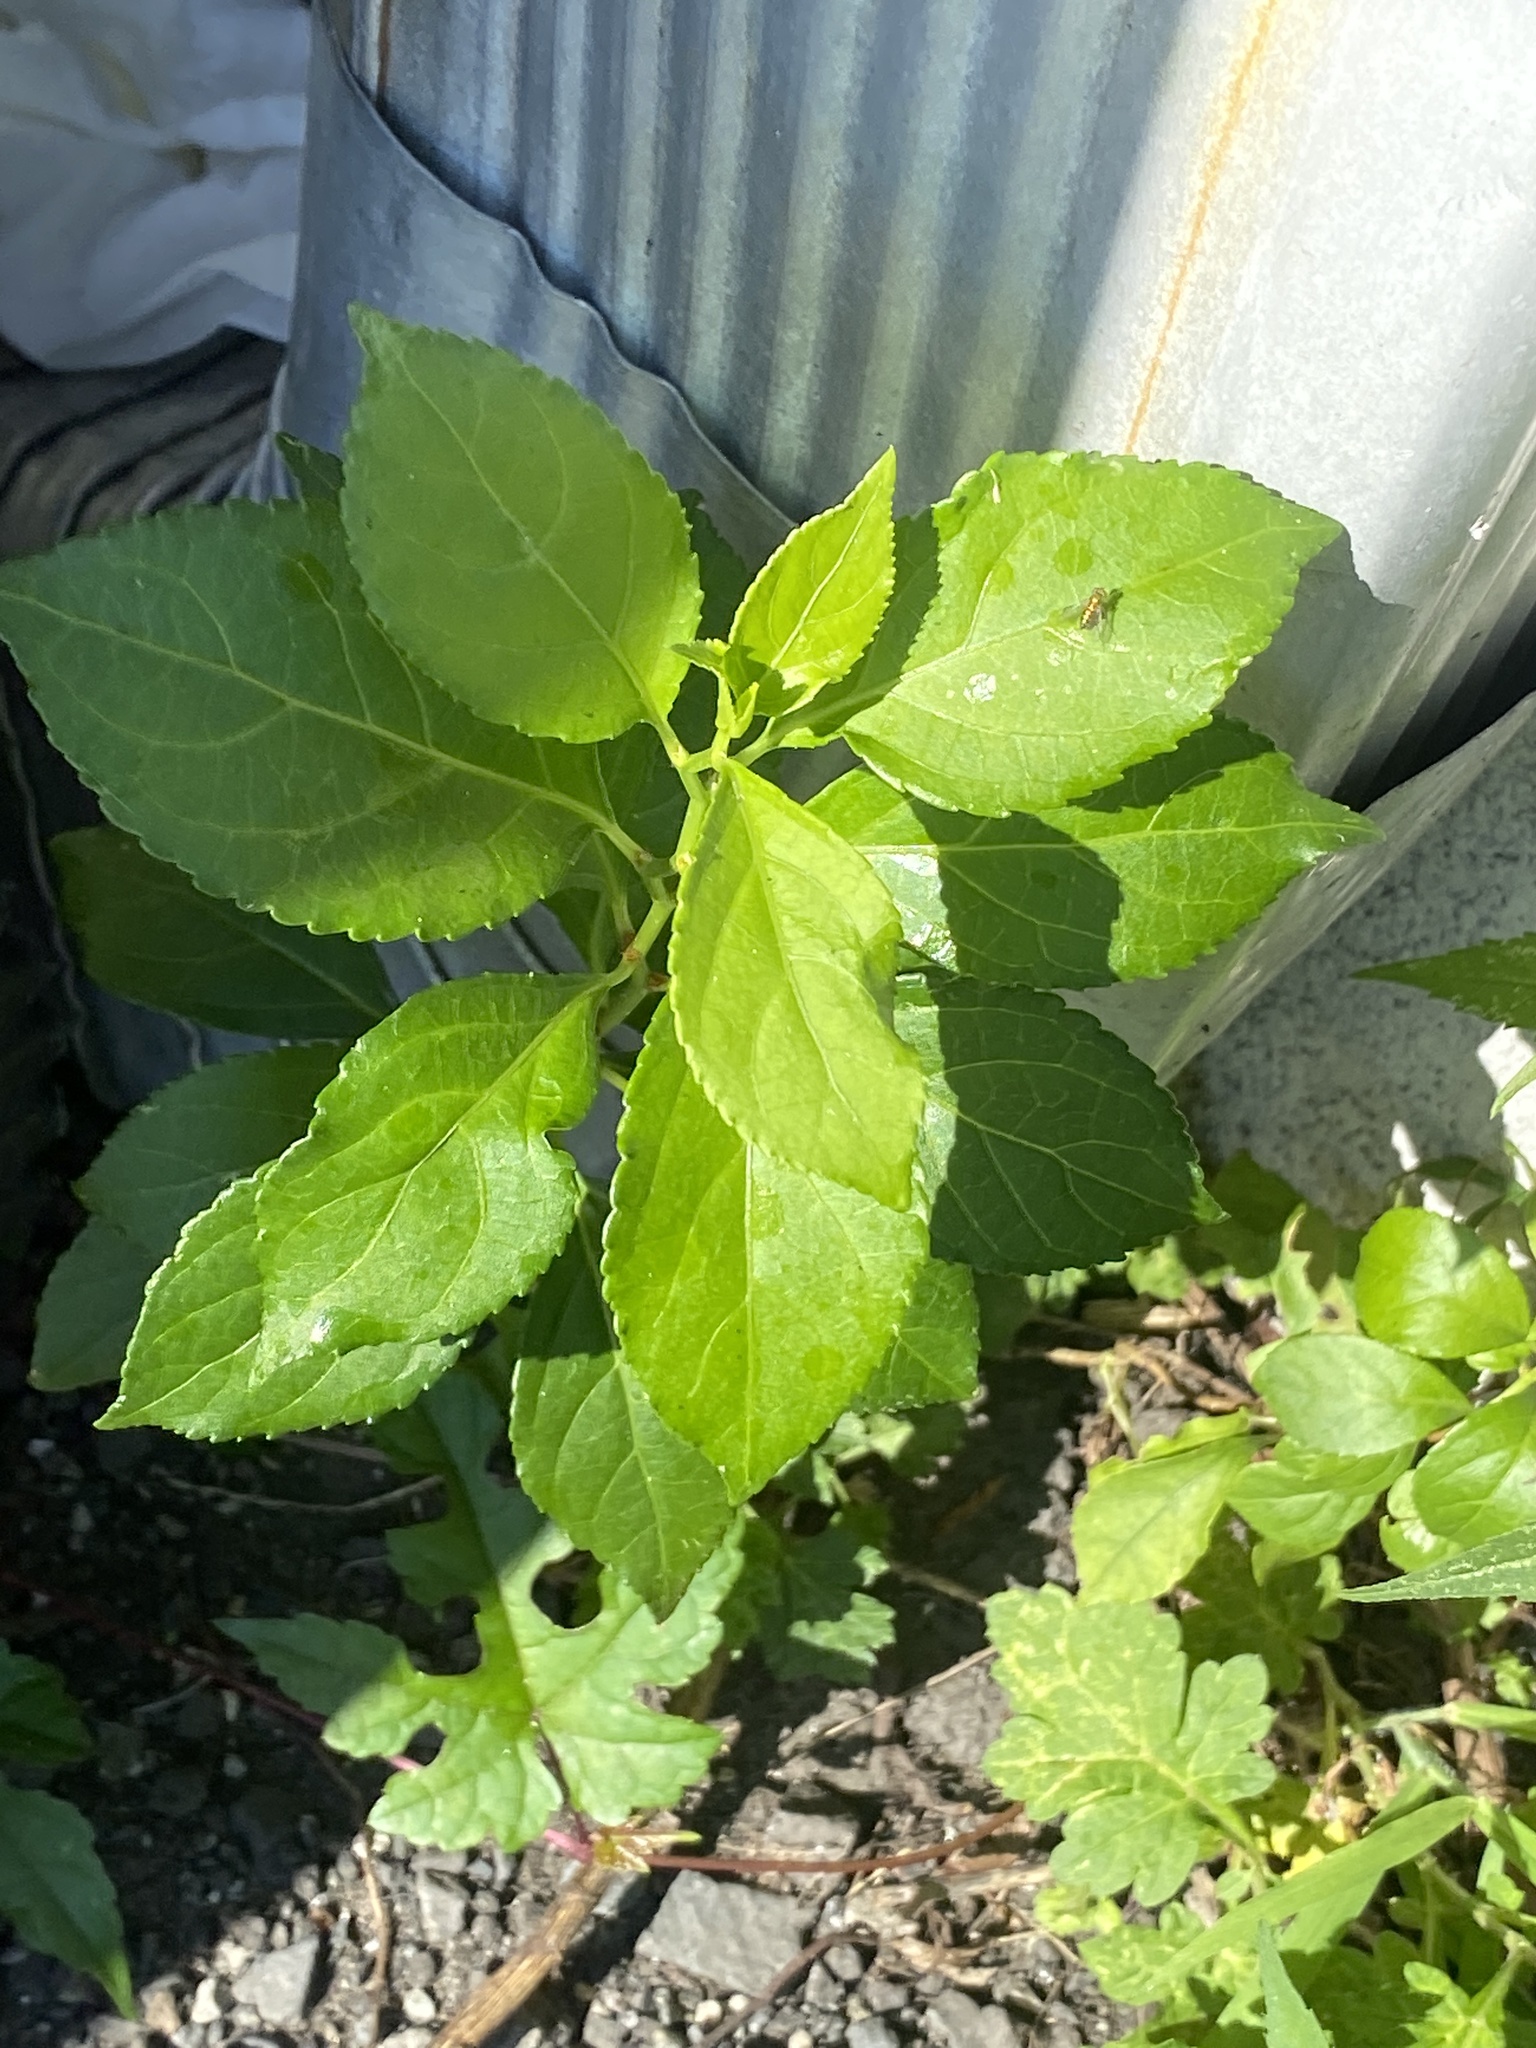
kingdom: Plantae
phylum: Tracheophyta
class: Magnoliopsida
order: Celastrales
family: Celastraceae
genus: Celastrus
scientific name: Celastrus orbiculatus
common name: Oriental bittersweet
